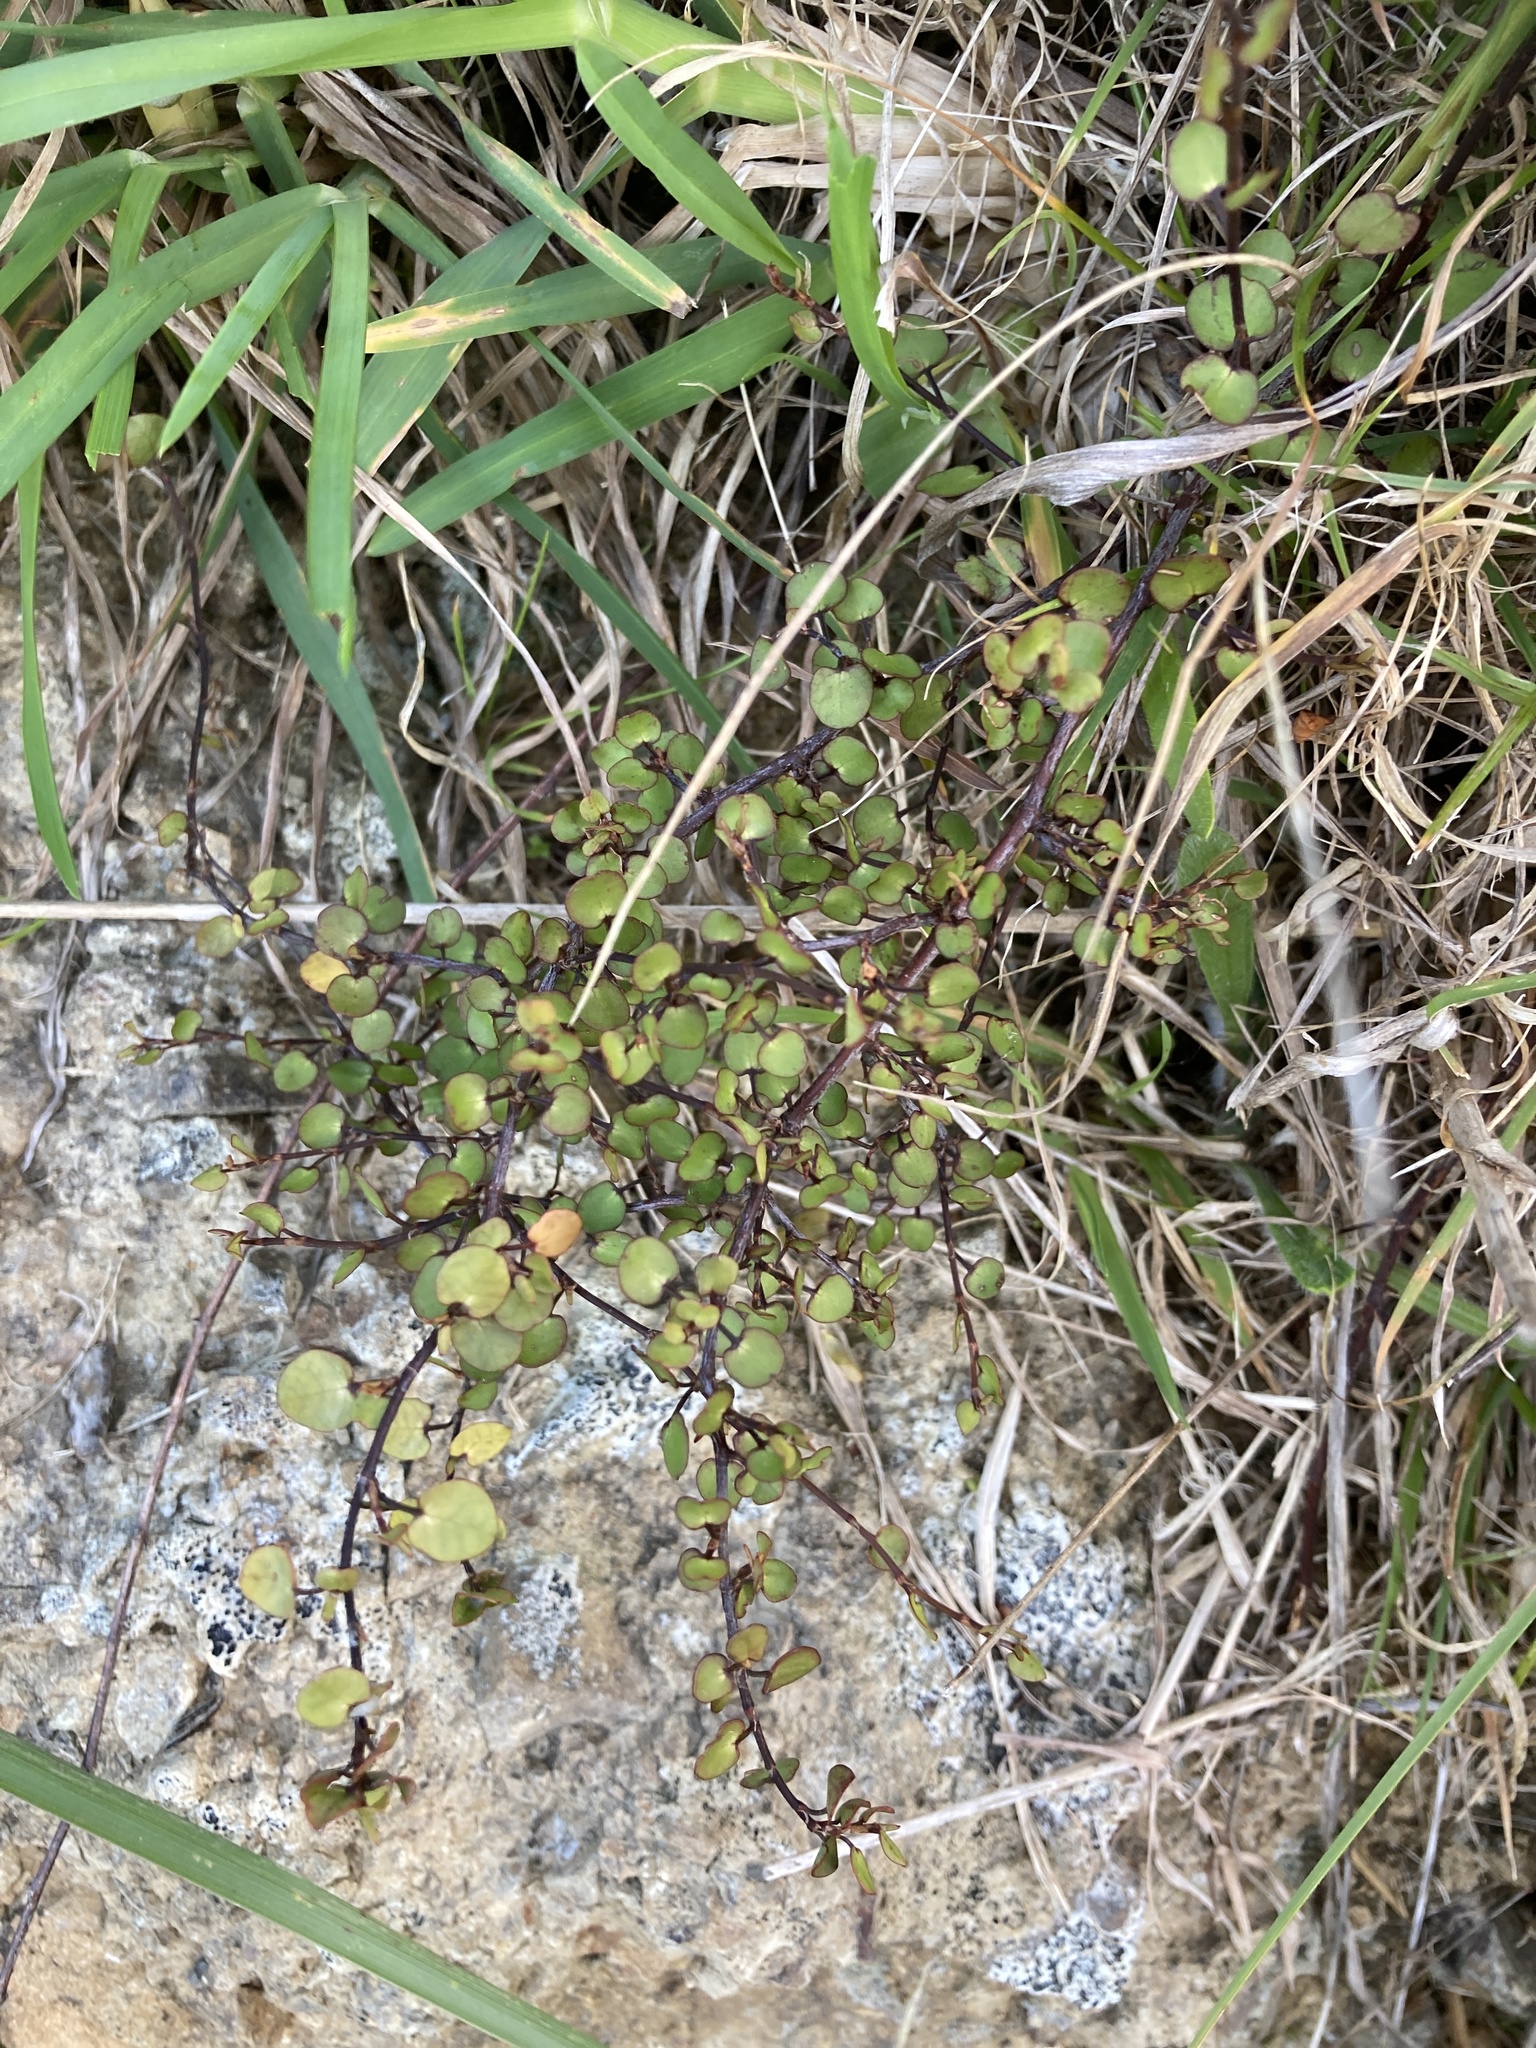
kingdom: Plantae
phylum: Tracheophyta
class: Magnoliopsida
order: Caryophyllales
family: Polygonaceae
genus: Muehlenbeckia
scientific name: Muehlenbeckia complexa
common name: Wireplant
